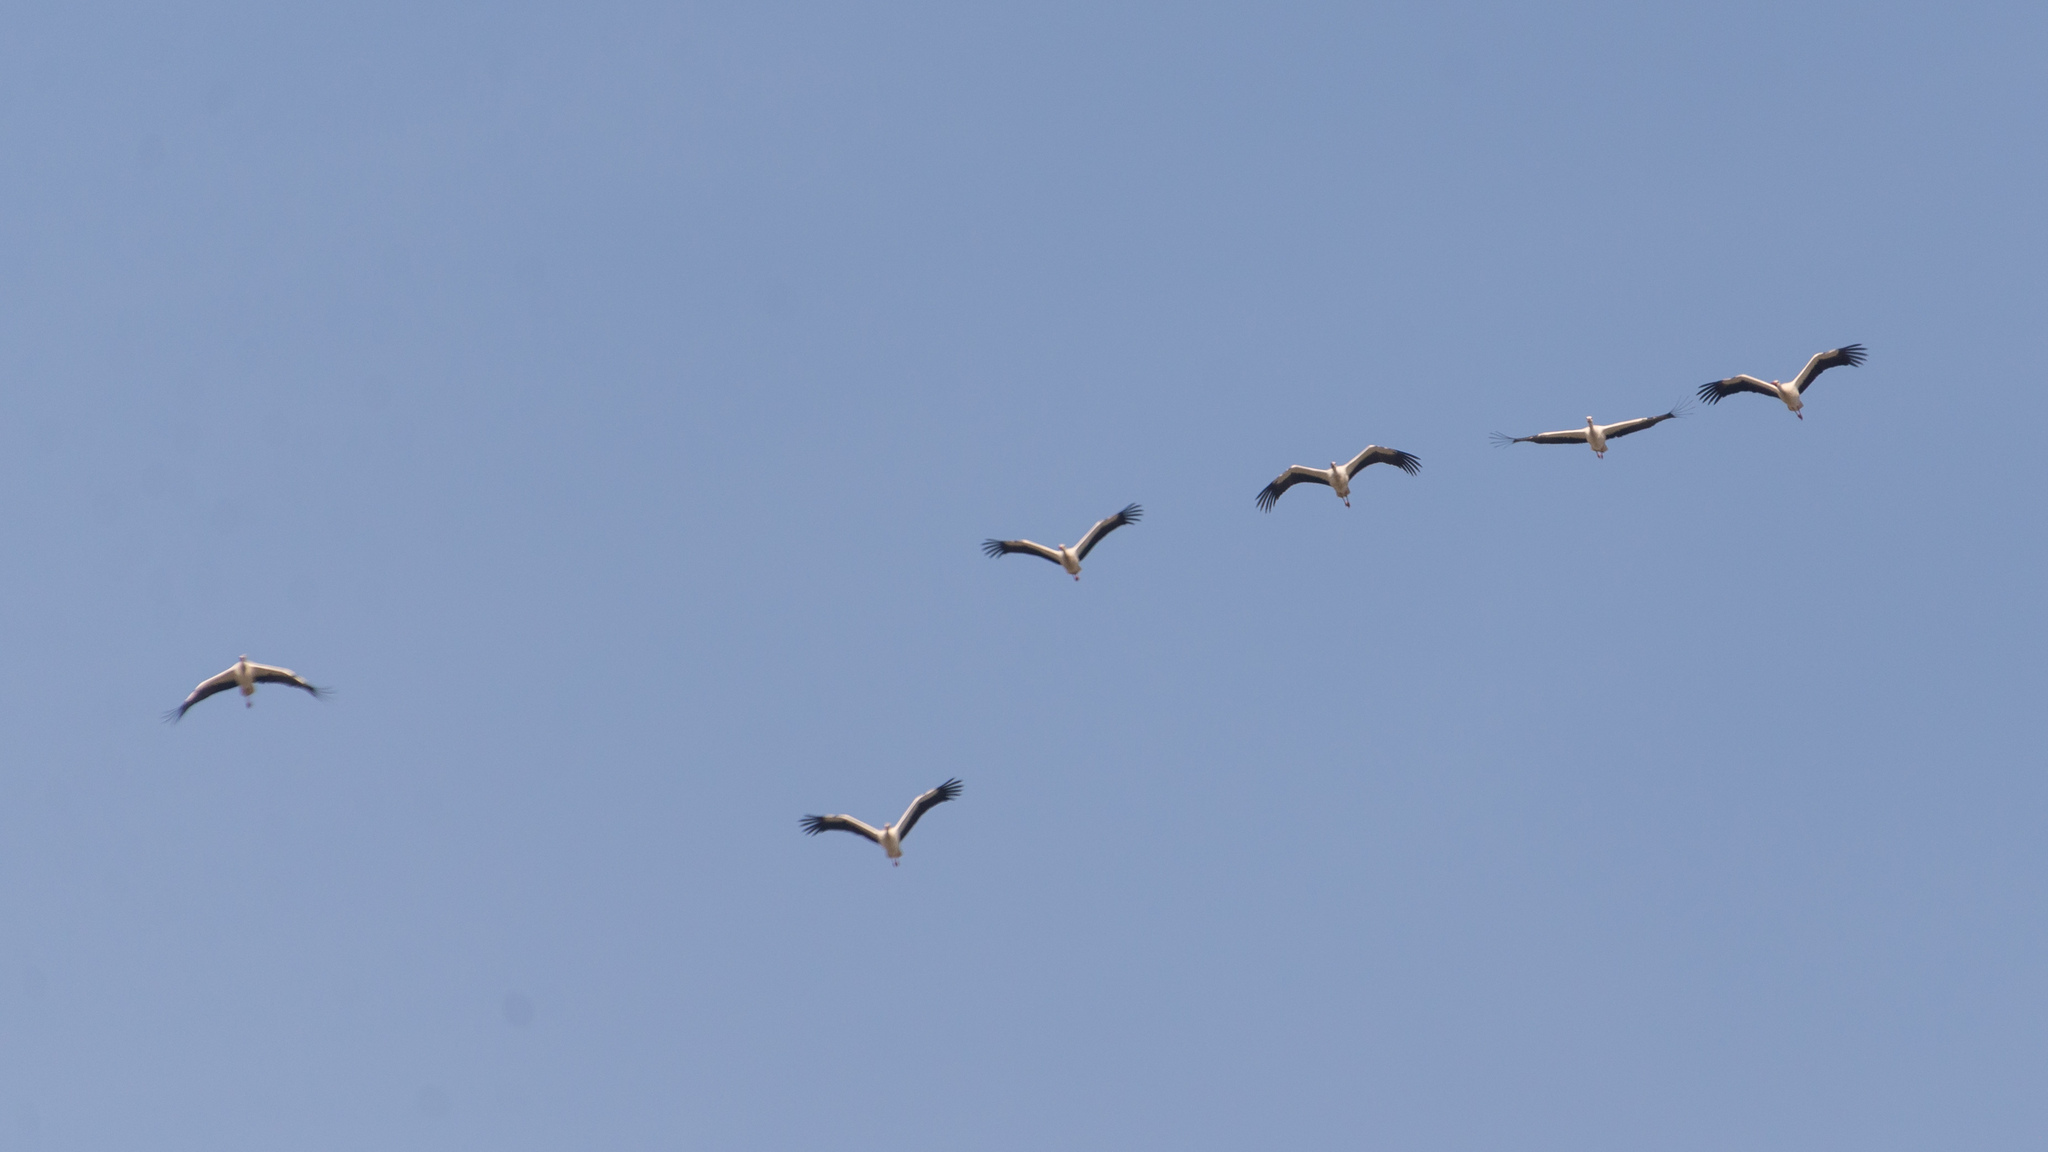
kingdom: Animalia
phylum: Chordata
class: Aves
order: Ciconiiformes
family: Ciconiidae
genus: Ciconia
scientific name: Ciconia ciconia
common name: White stork
